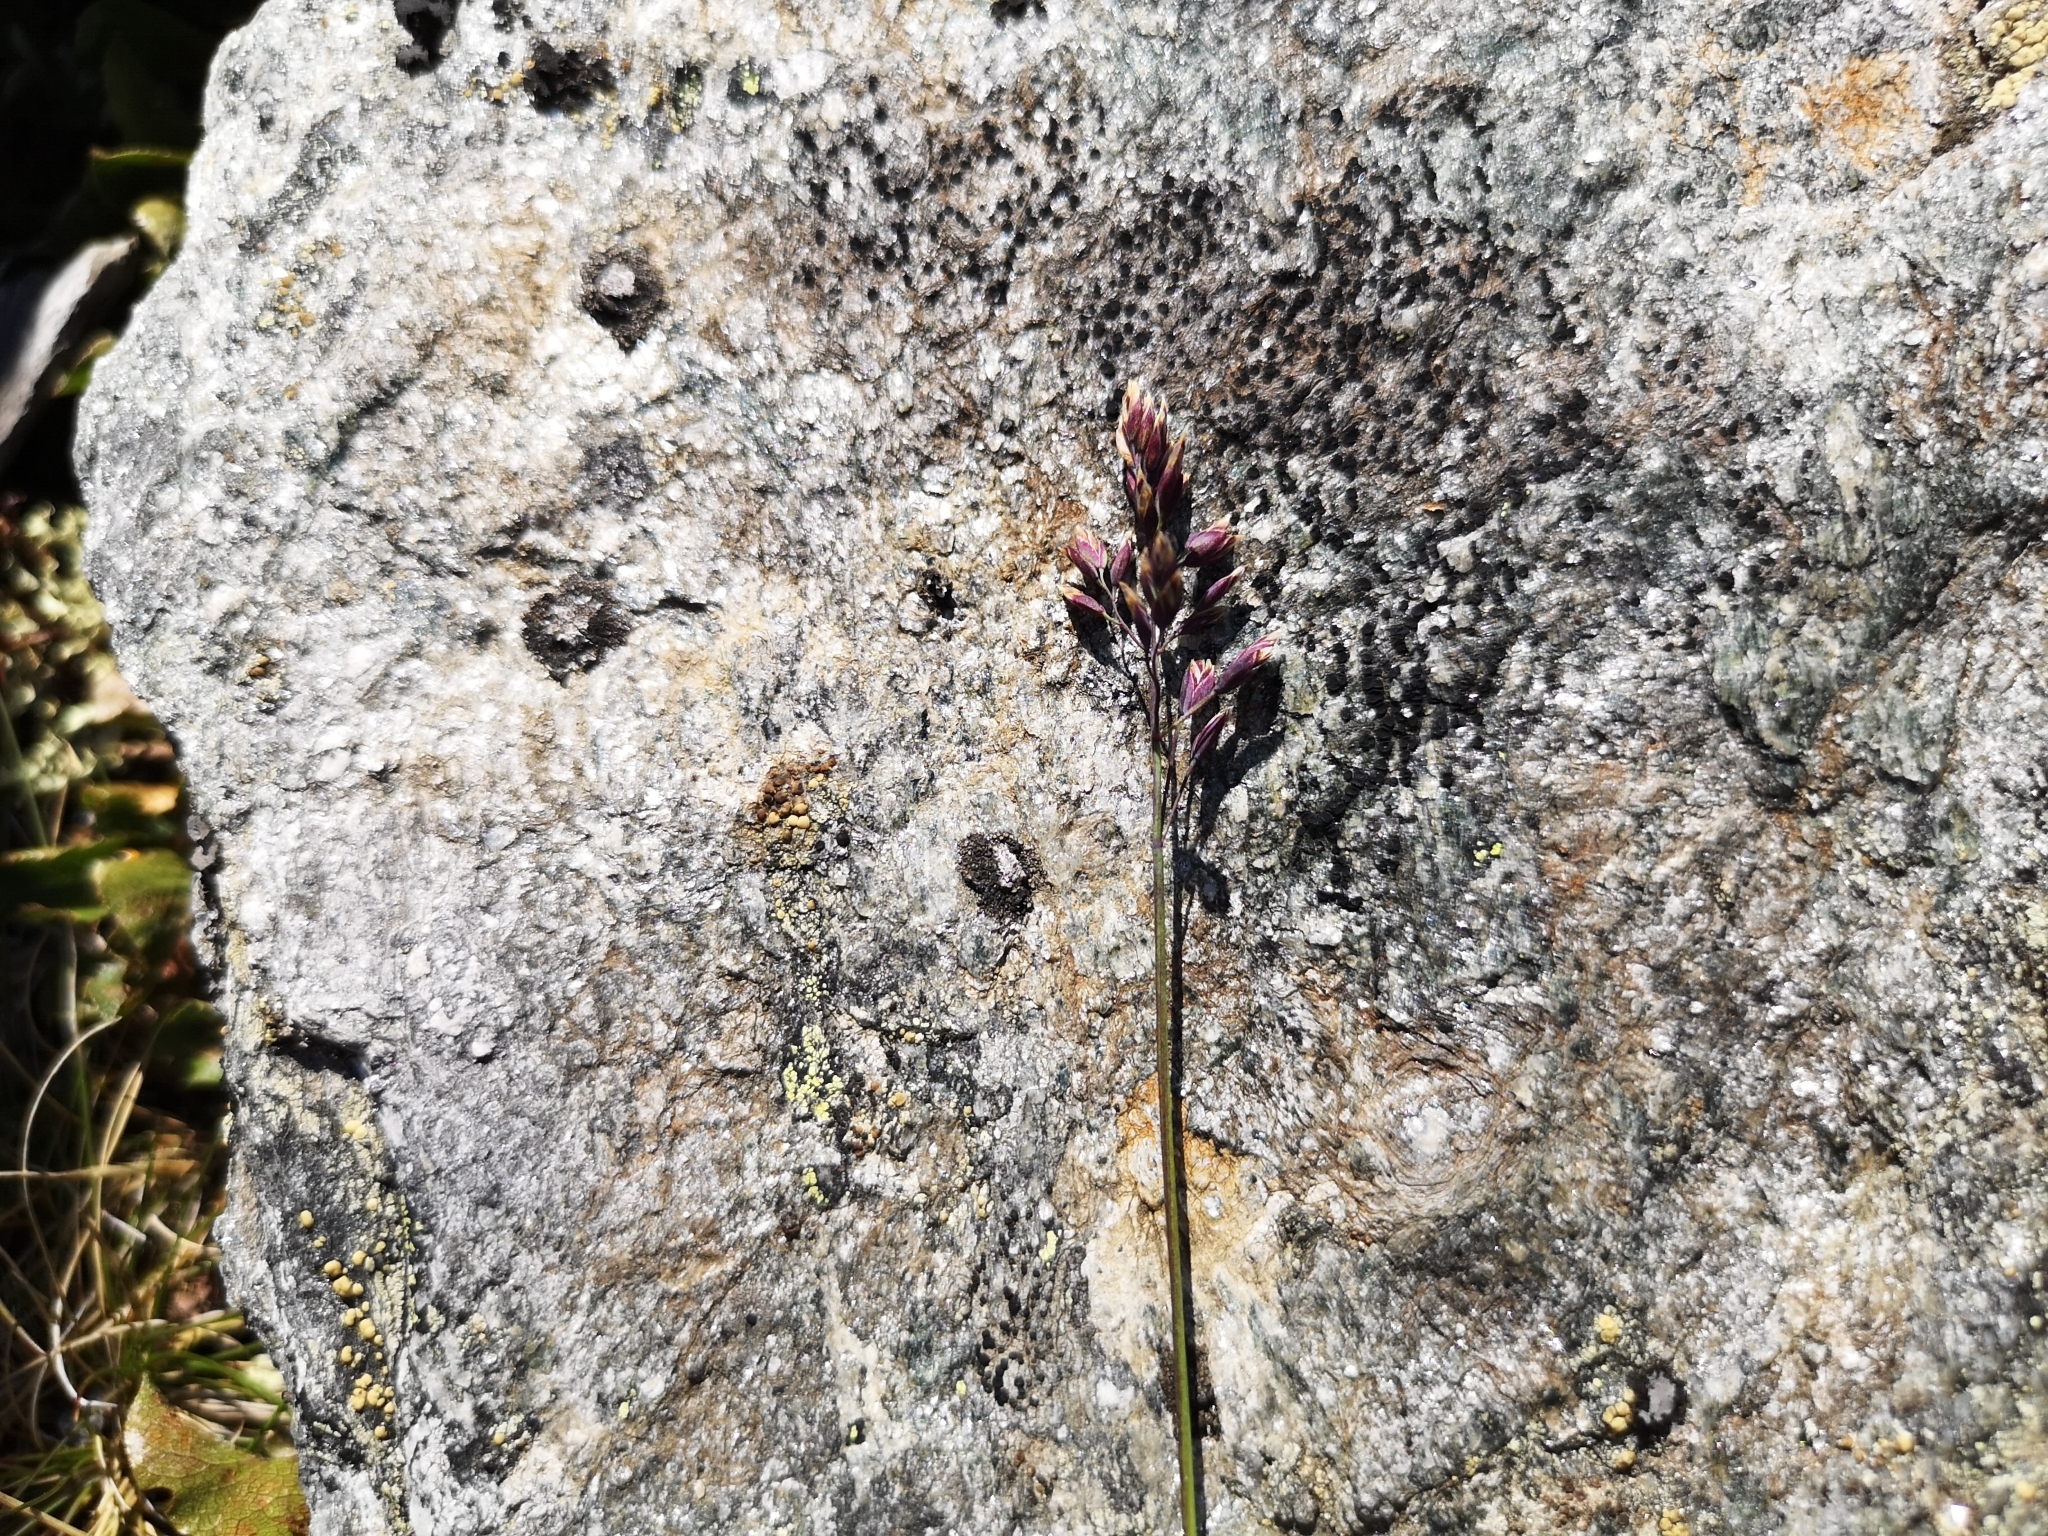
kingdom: Plantae
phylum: Tracheophyta
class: Liliopsida
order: Poales
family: Poaceae
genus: Poa
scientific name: Poa alpina
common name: Alpine bluegrass
